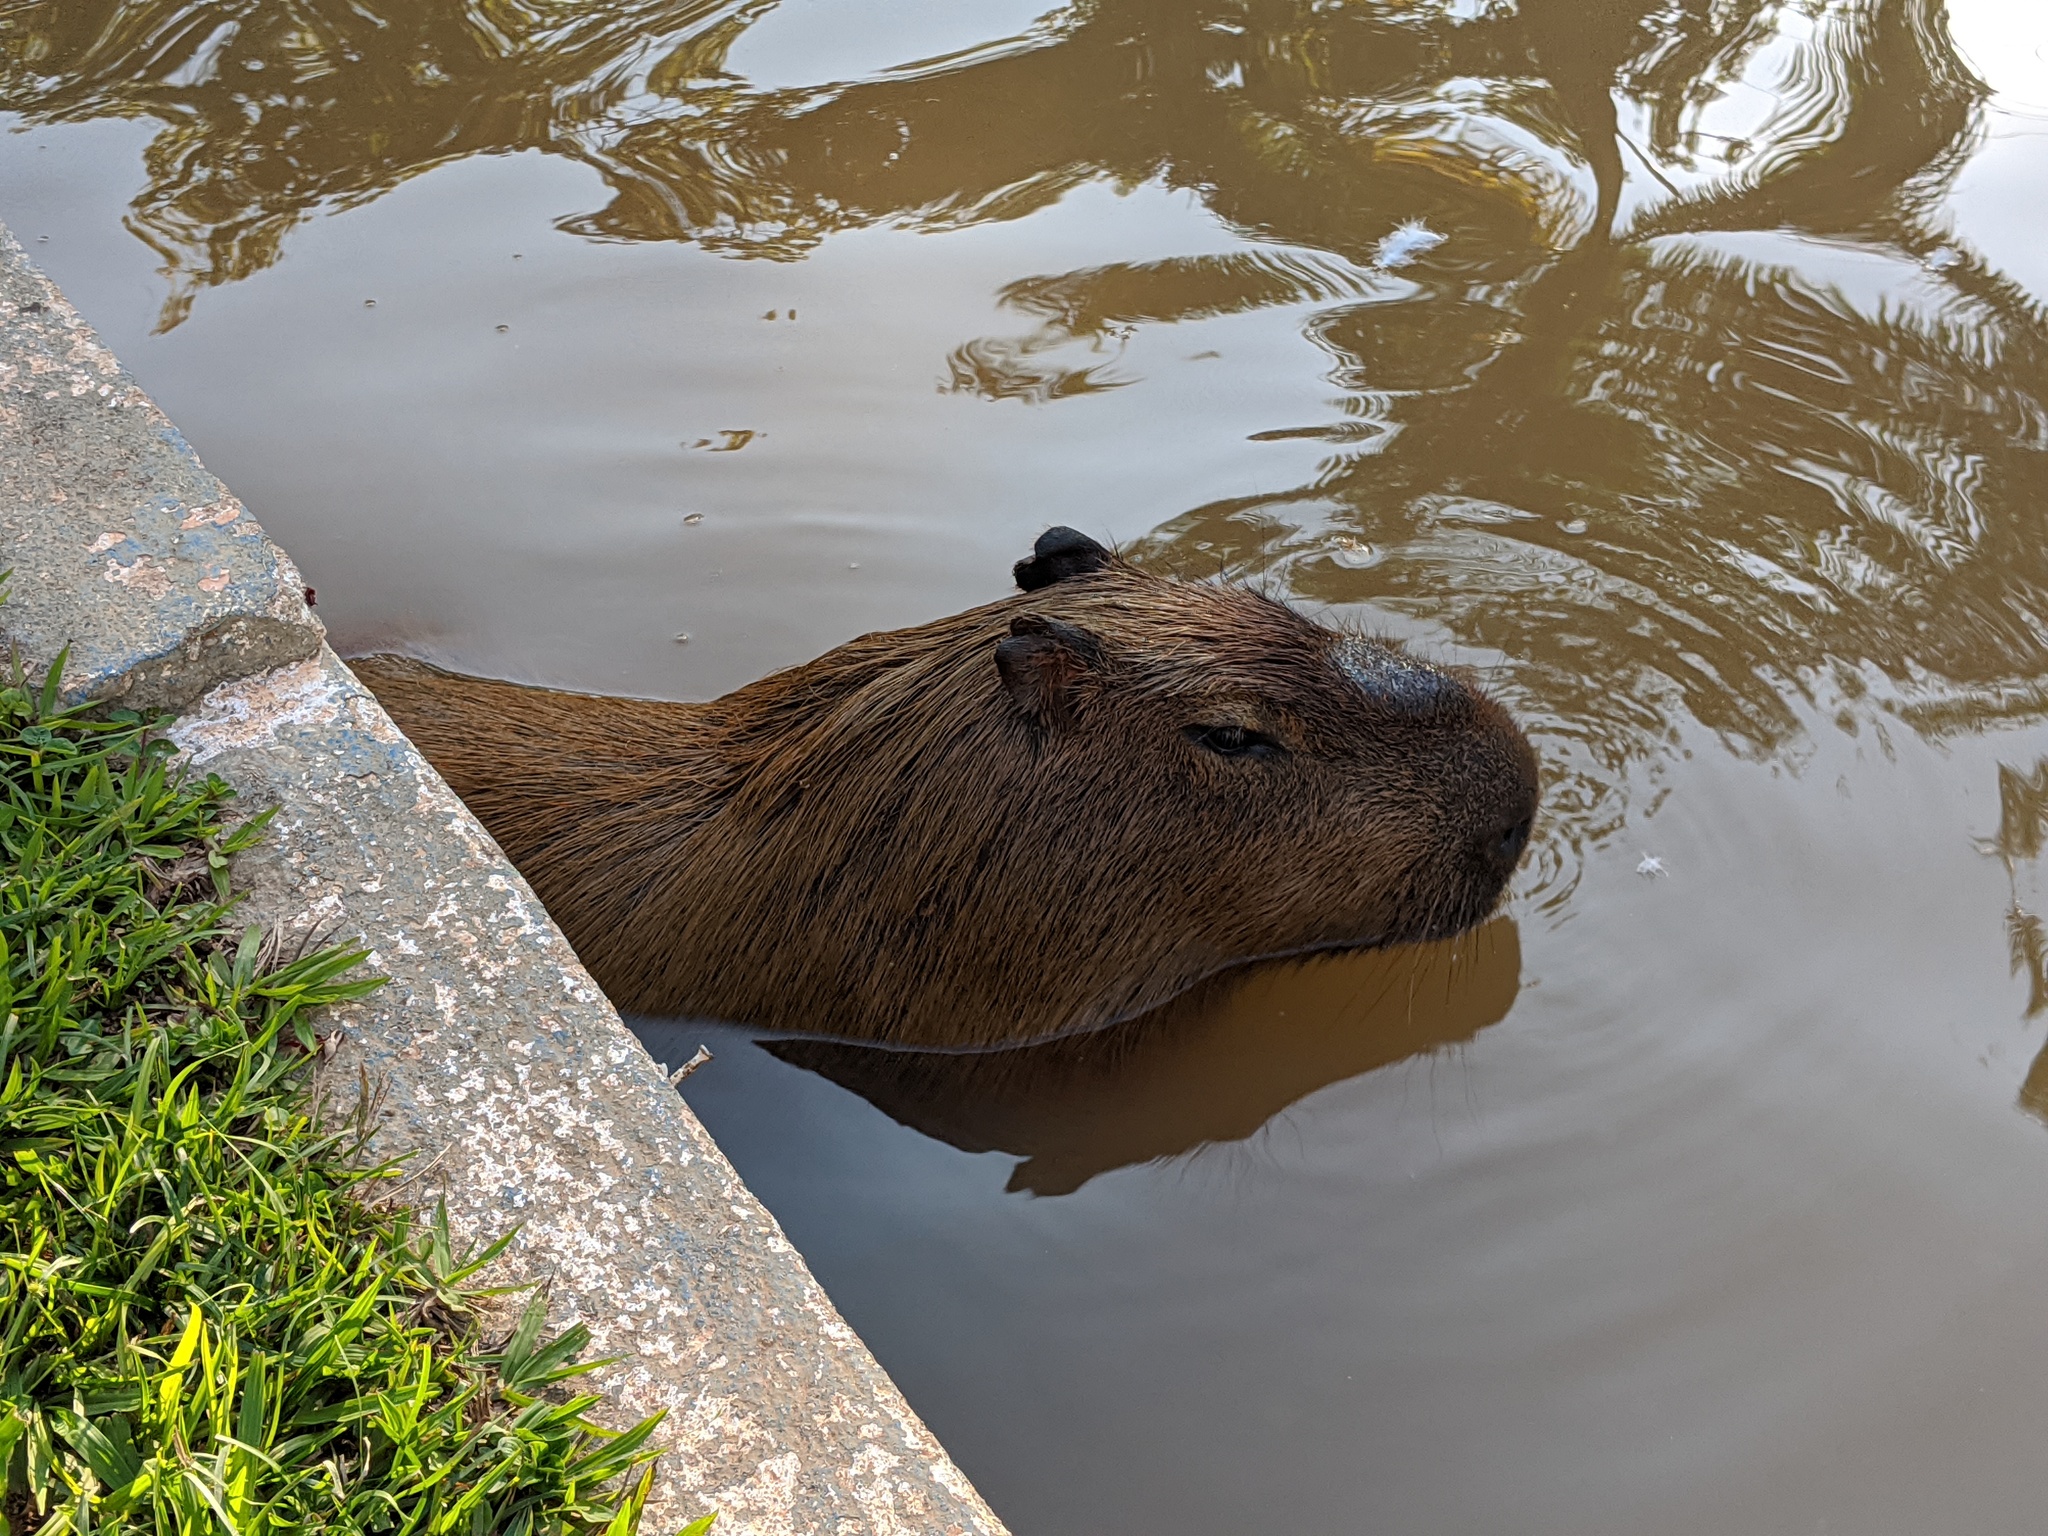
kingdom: Animalia
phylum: Chordata
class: Mammalia
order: Rodentia
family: Caviidae
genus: Hydrochoerus
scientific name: Hydrochoerus hydrochaeris
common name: Capybara
